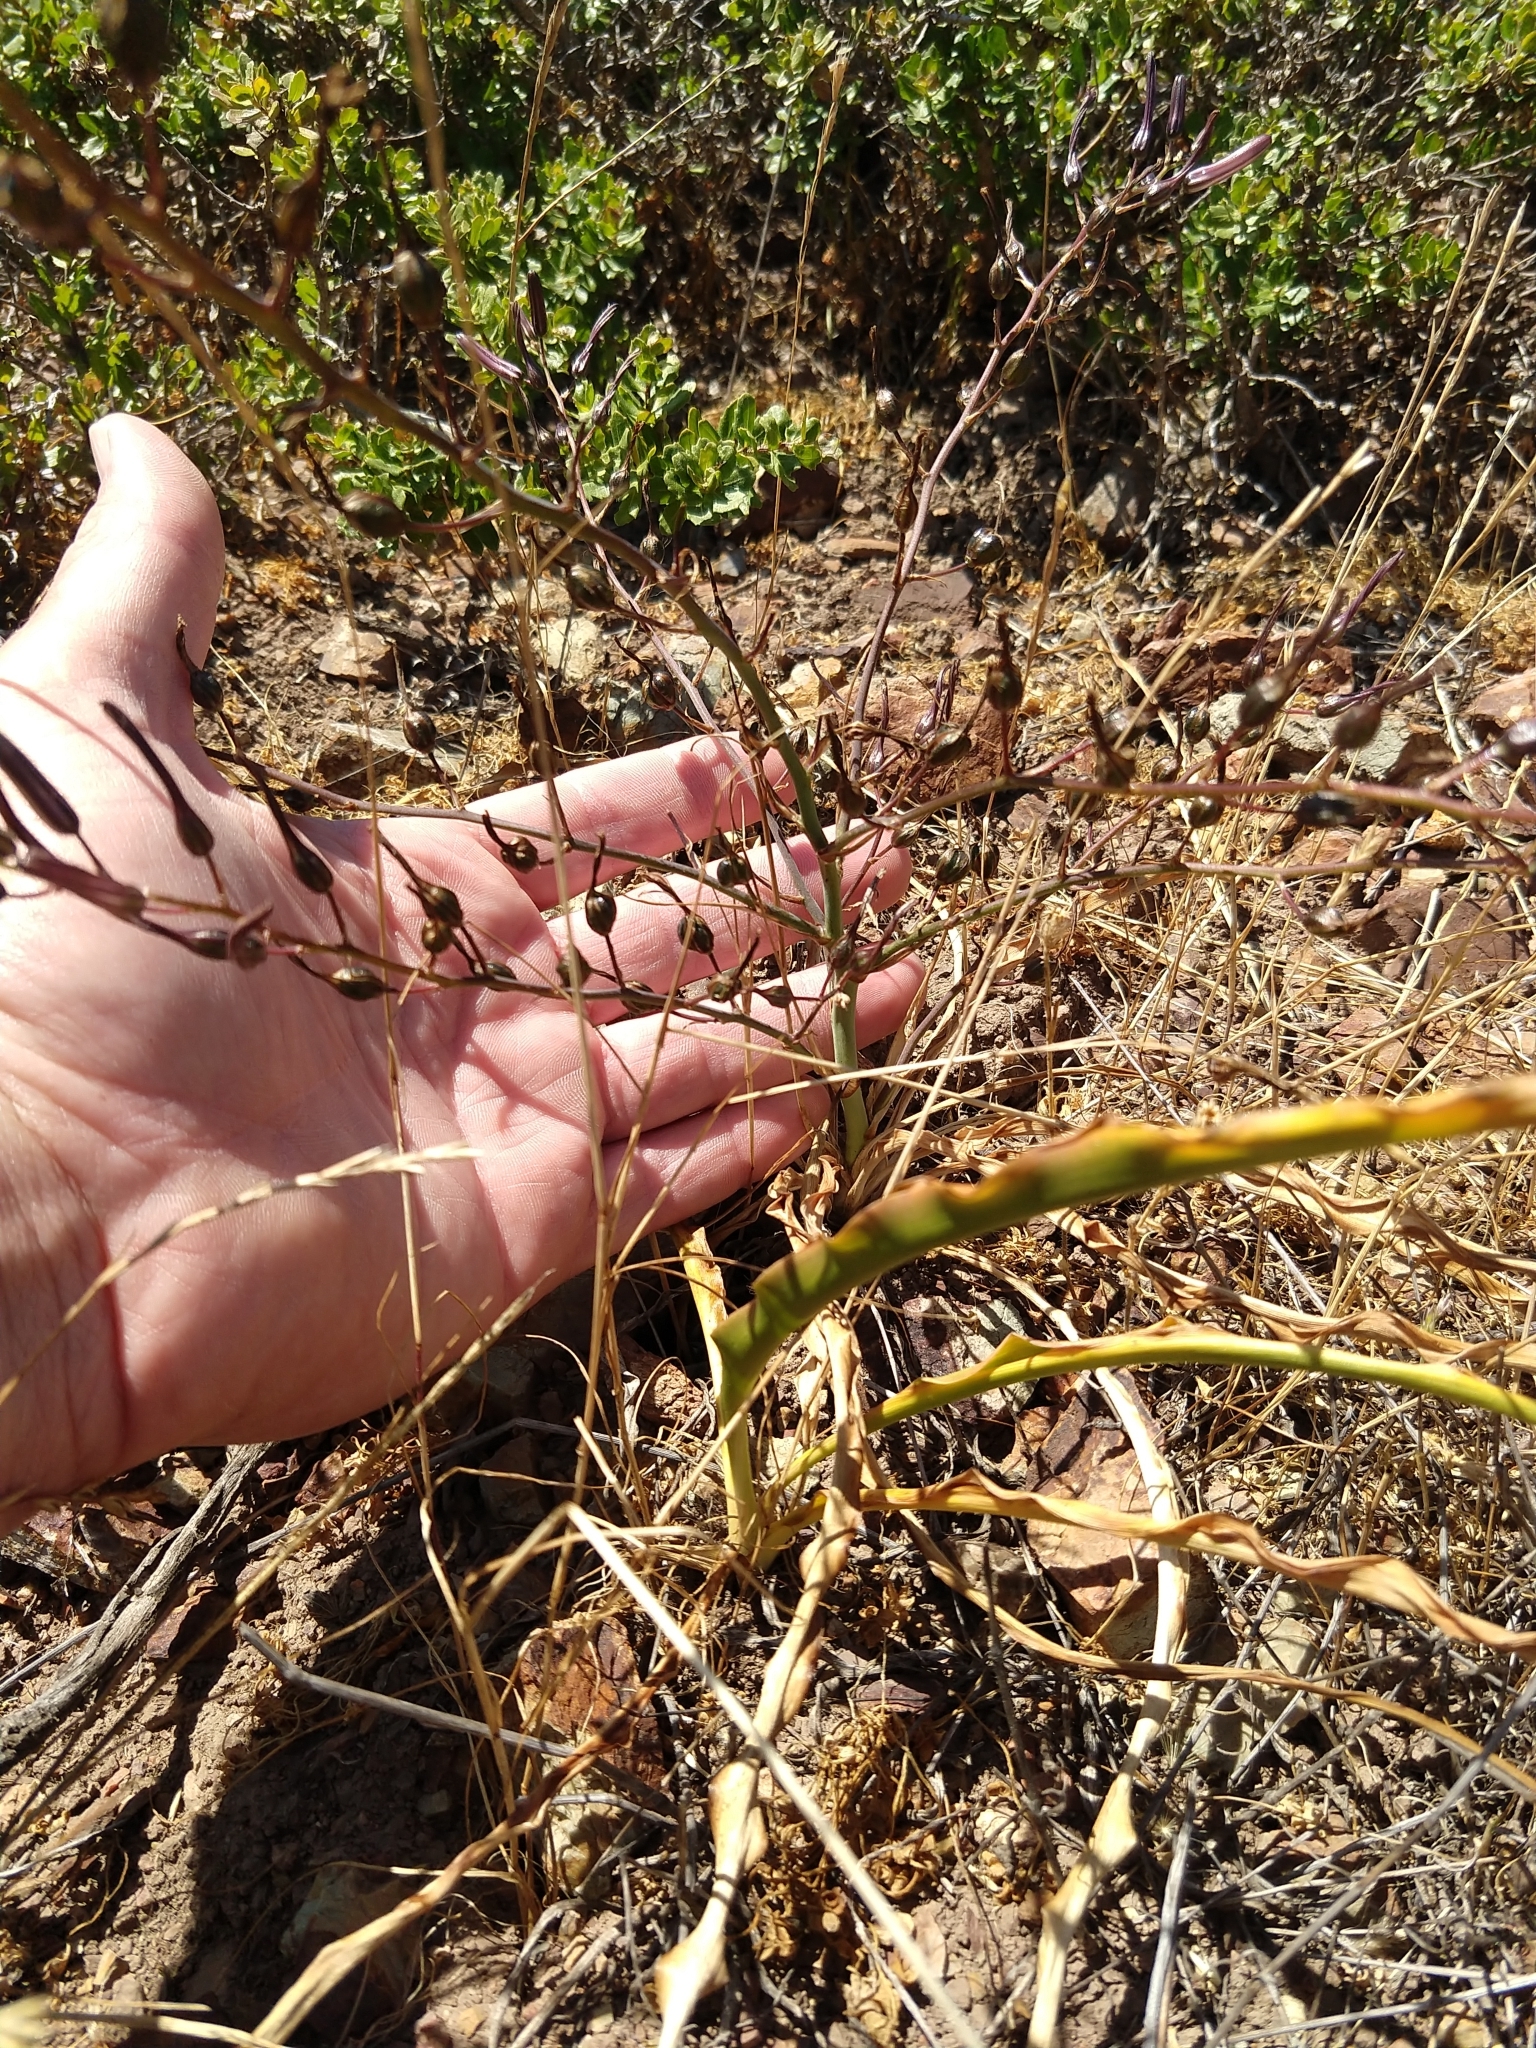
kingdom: Plantae
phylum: Tracheophyta
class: Liliopsida
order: Asparagales
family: Asparagaceae
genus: Chlorogalum
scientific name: Chlorogalum pomeridianum
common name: Amole
